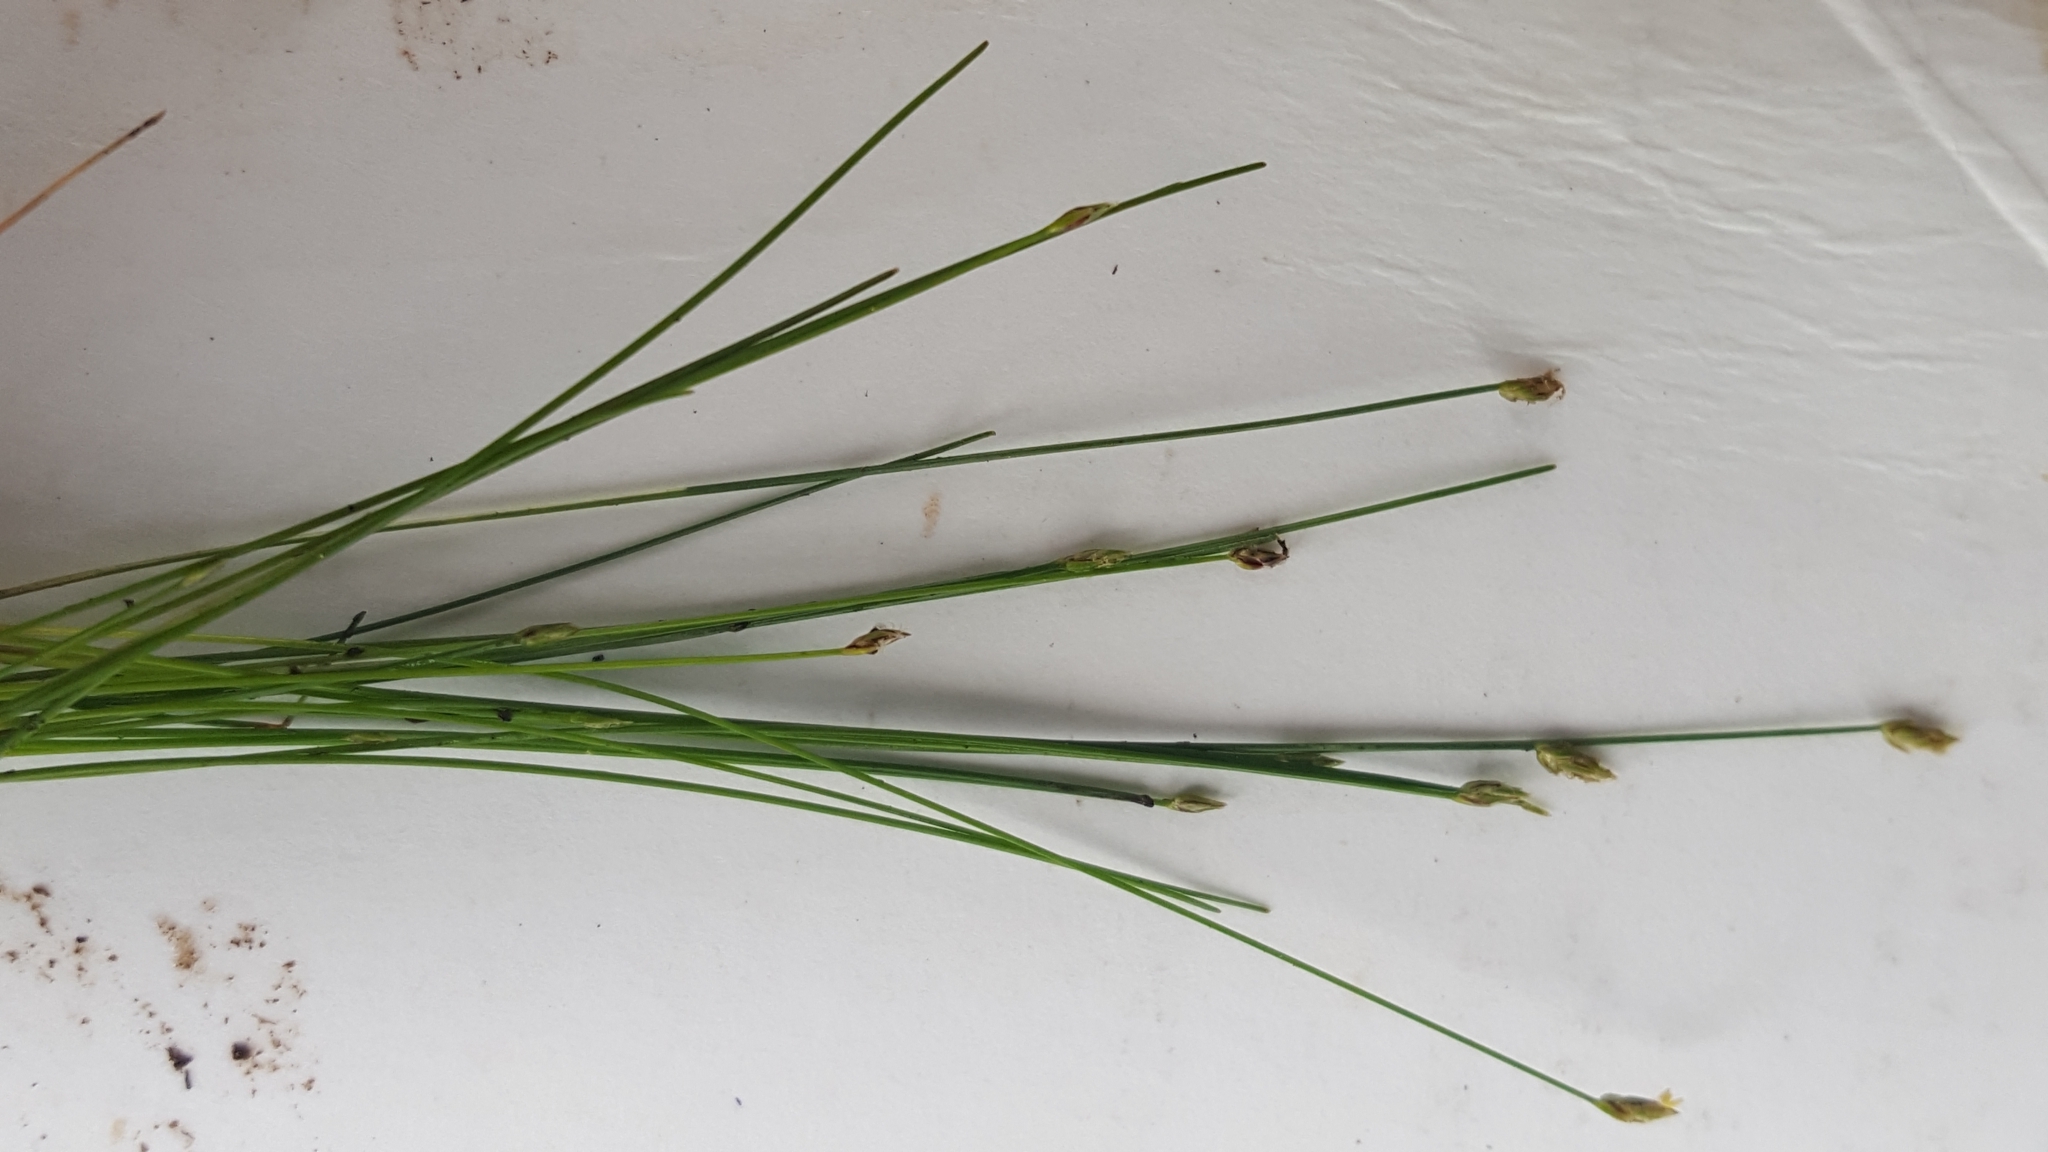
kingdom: Plantae
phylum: Tracheophyta
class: Liliopsida
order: Poales
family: Cyperaceae
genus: Eleocharis
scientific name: Eleocharis acicularis
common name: Needle spike-rush
